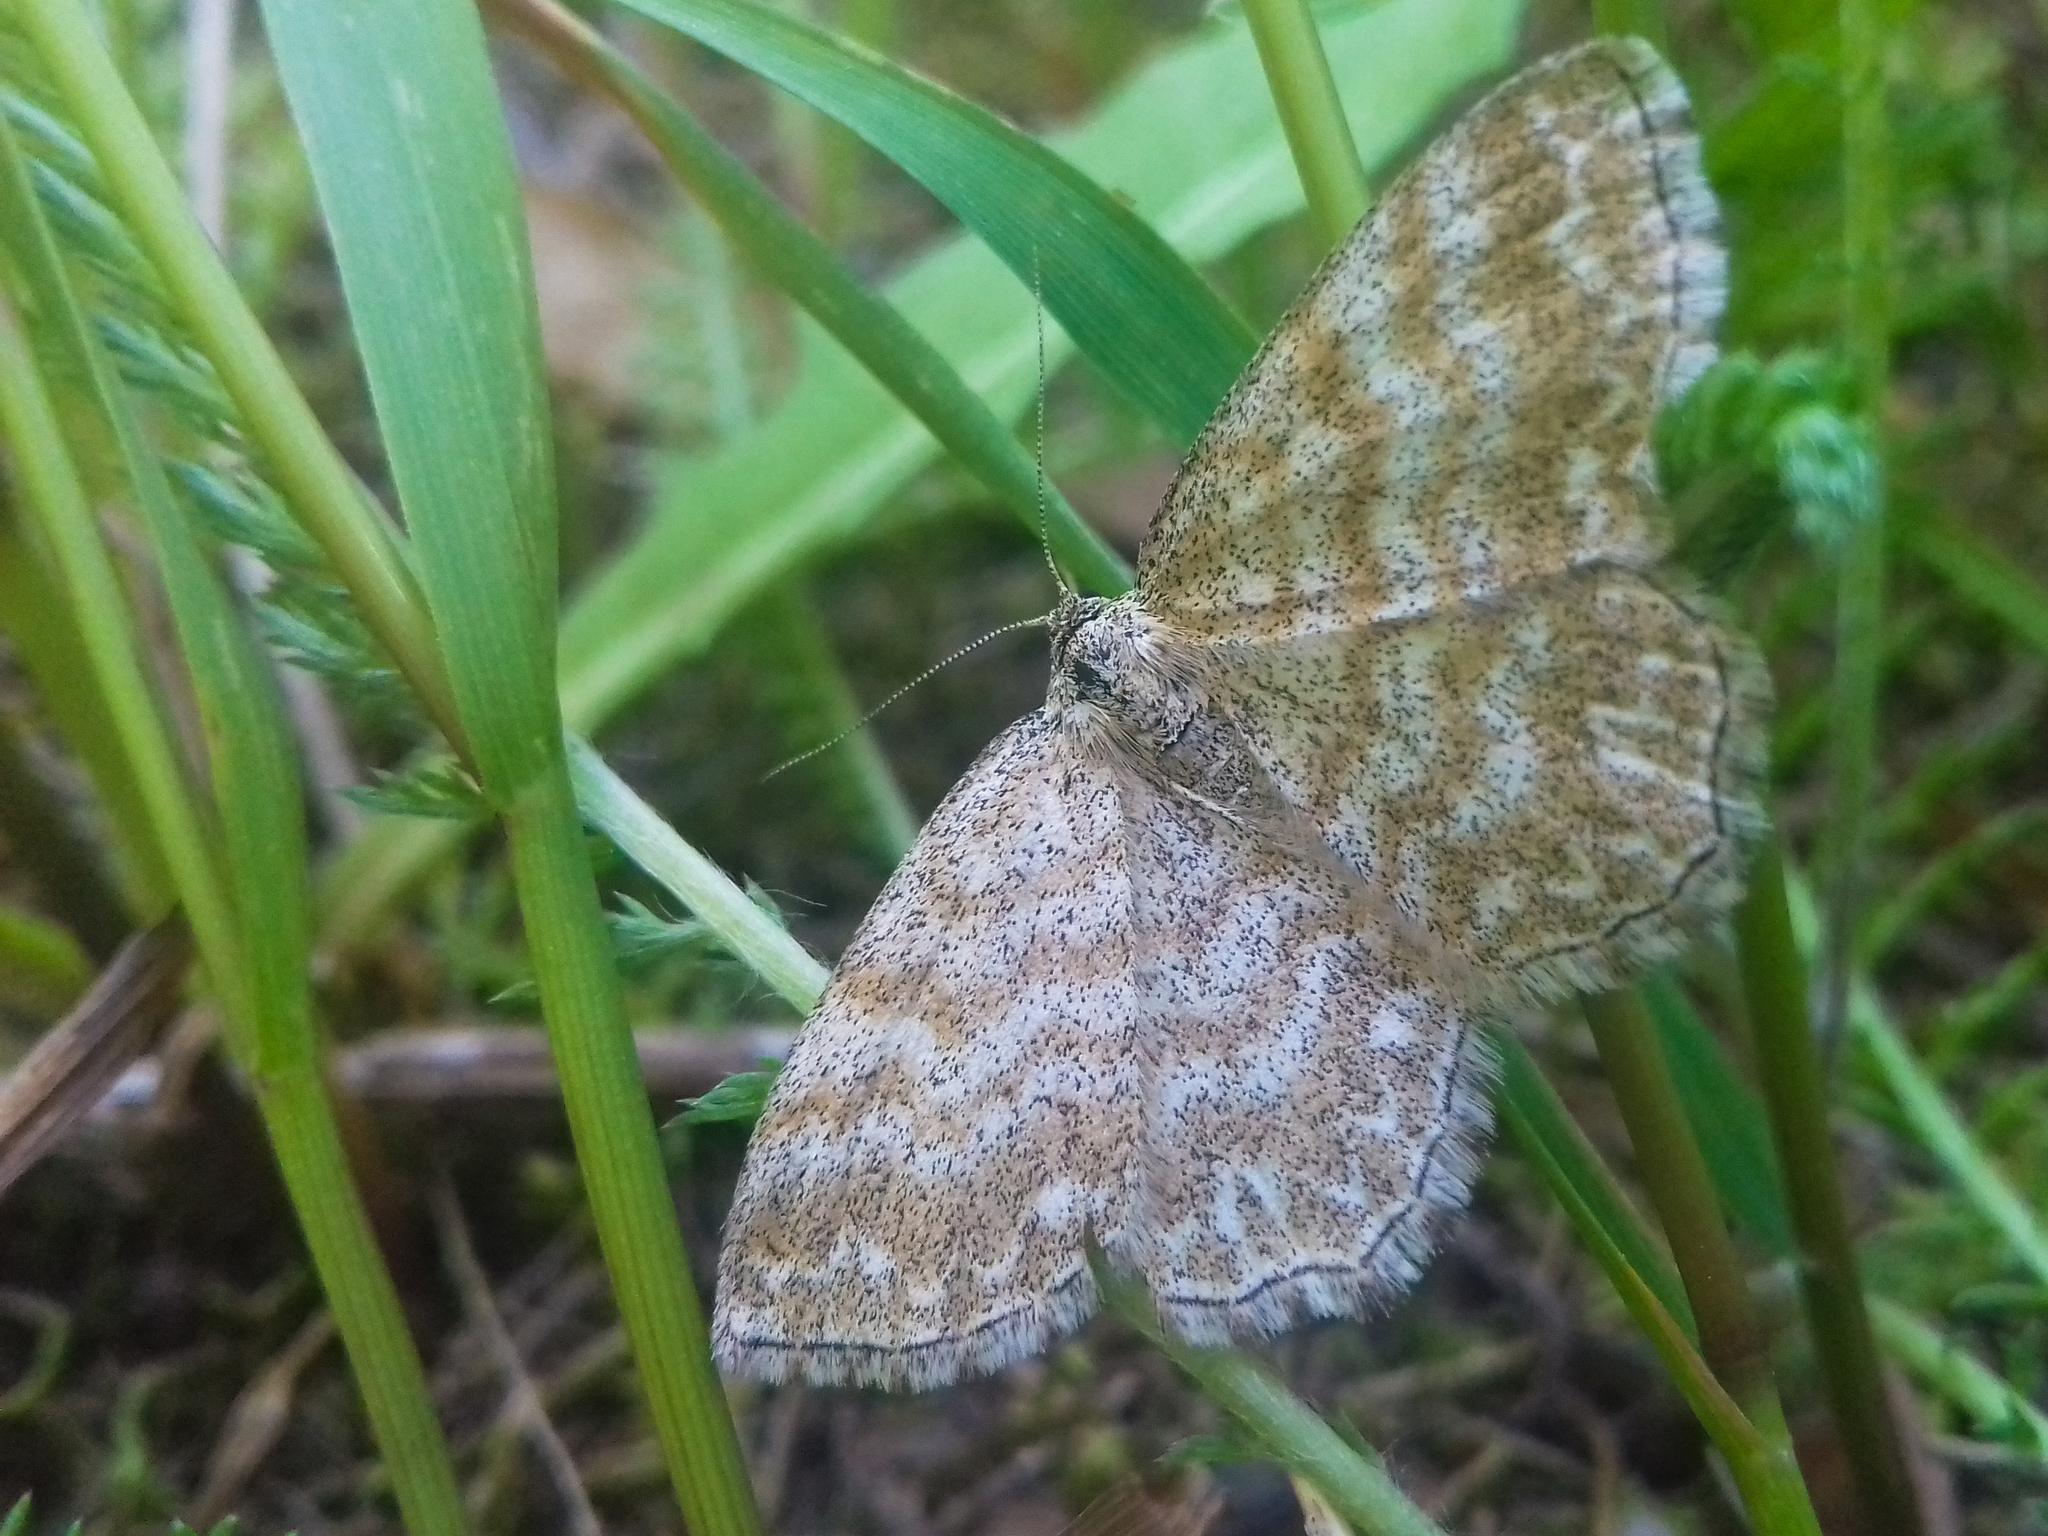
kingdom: Animalia
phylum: Arthropoda
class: Insecta
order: Lepidoptera
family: Geometridae
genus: Scopula
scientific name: Scopula immorata
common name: Lewes wave
